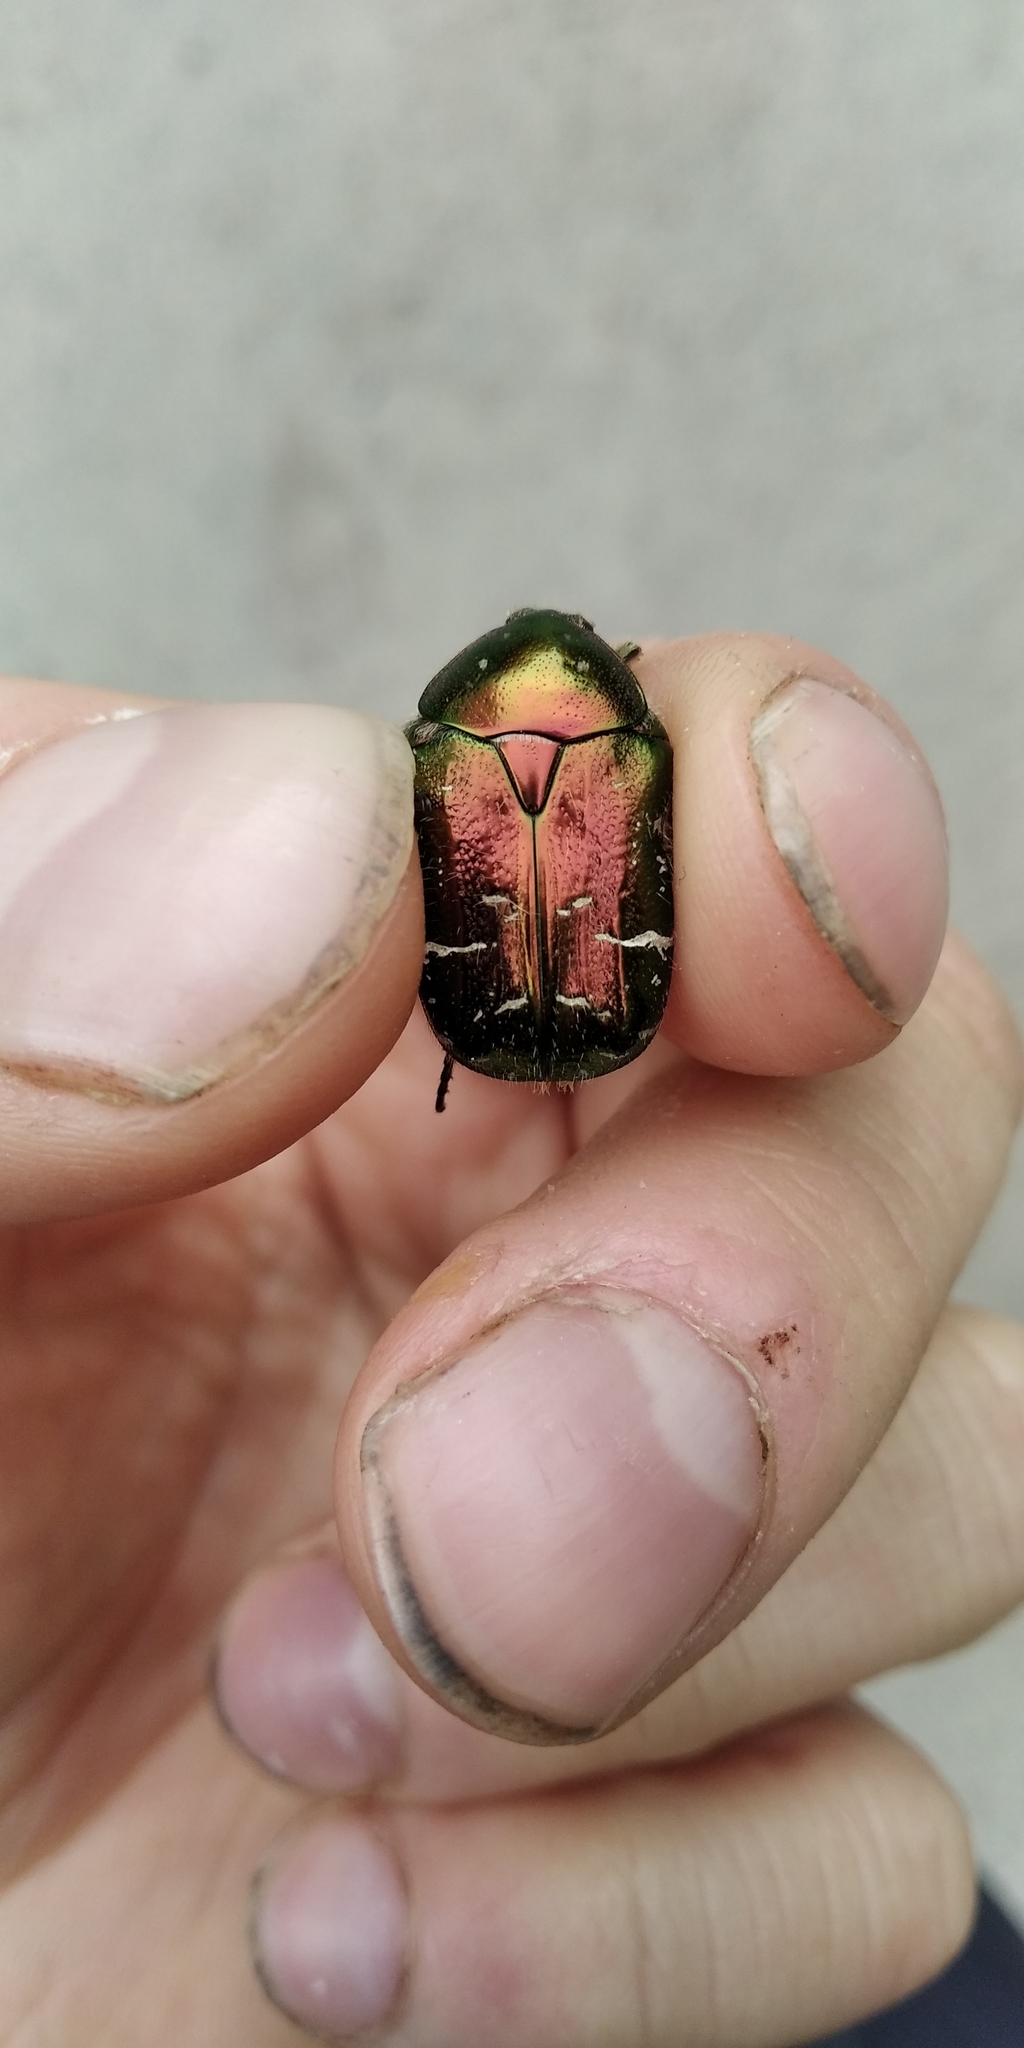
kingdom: Animalia
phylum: Arthropoda
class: Insecta
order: Coleoptera
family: Scarabaeidae
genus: Cetonia
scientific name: Cetonia aurata
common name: Rose chafer
